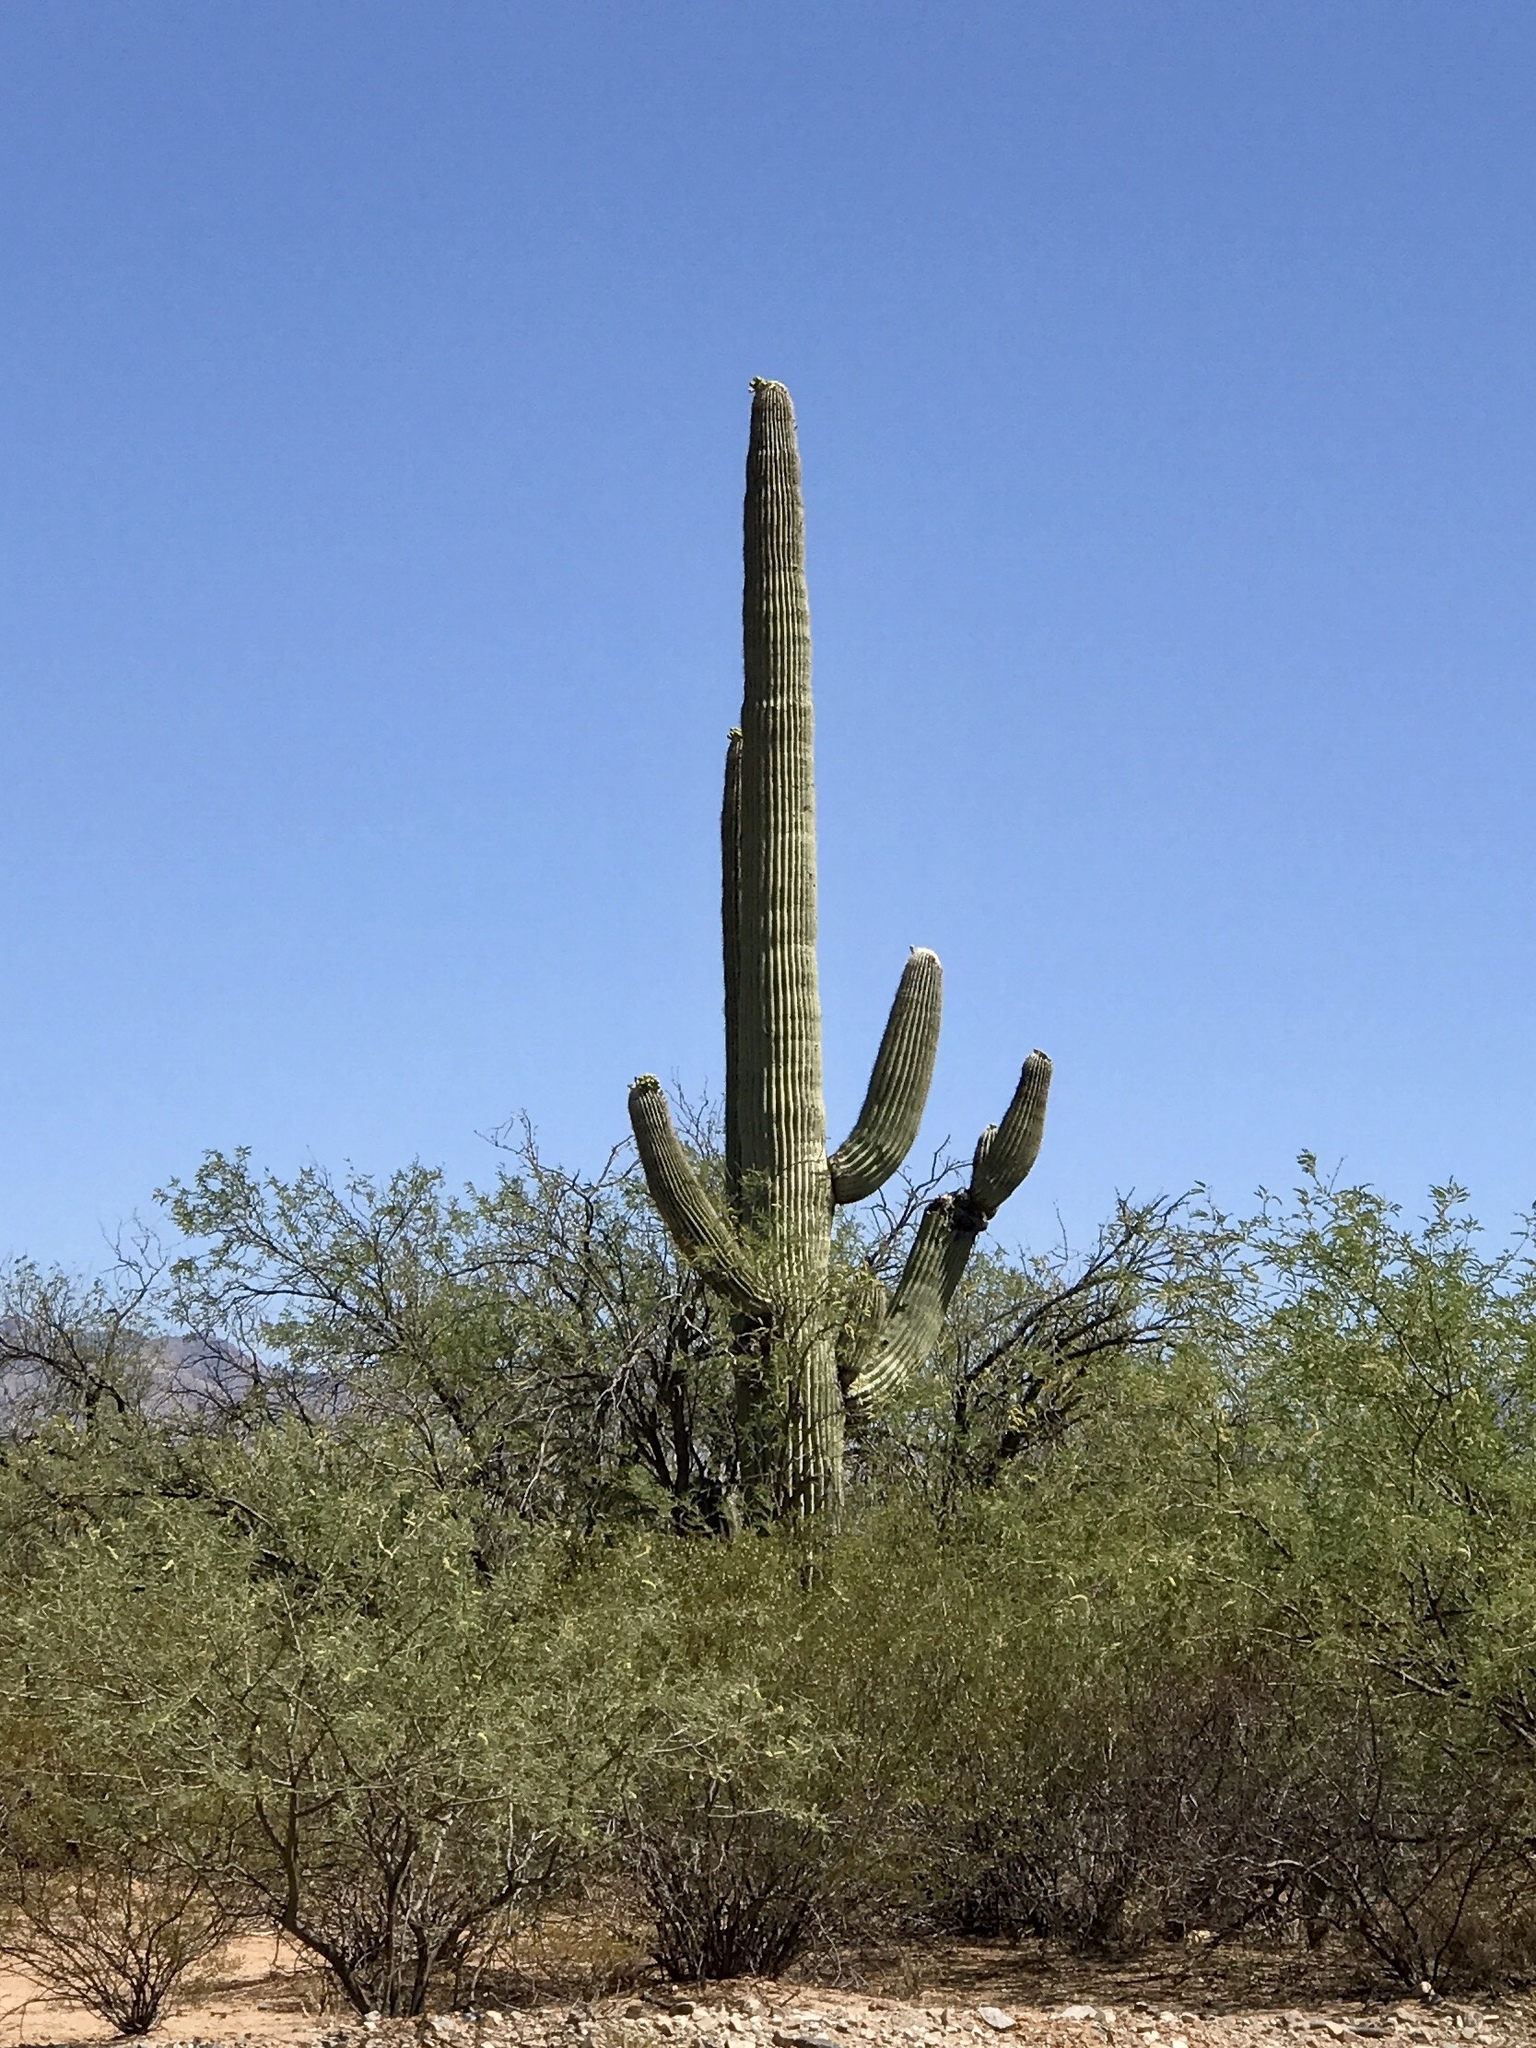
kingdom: Plantae
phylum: Tracheophyta
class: Magnoliopsida
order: Caryophyllales
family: Cactaceae
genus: Carnegiea
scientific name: Carnegiea gigantea
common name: Saguaro
